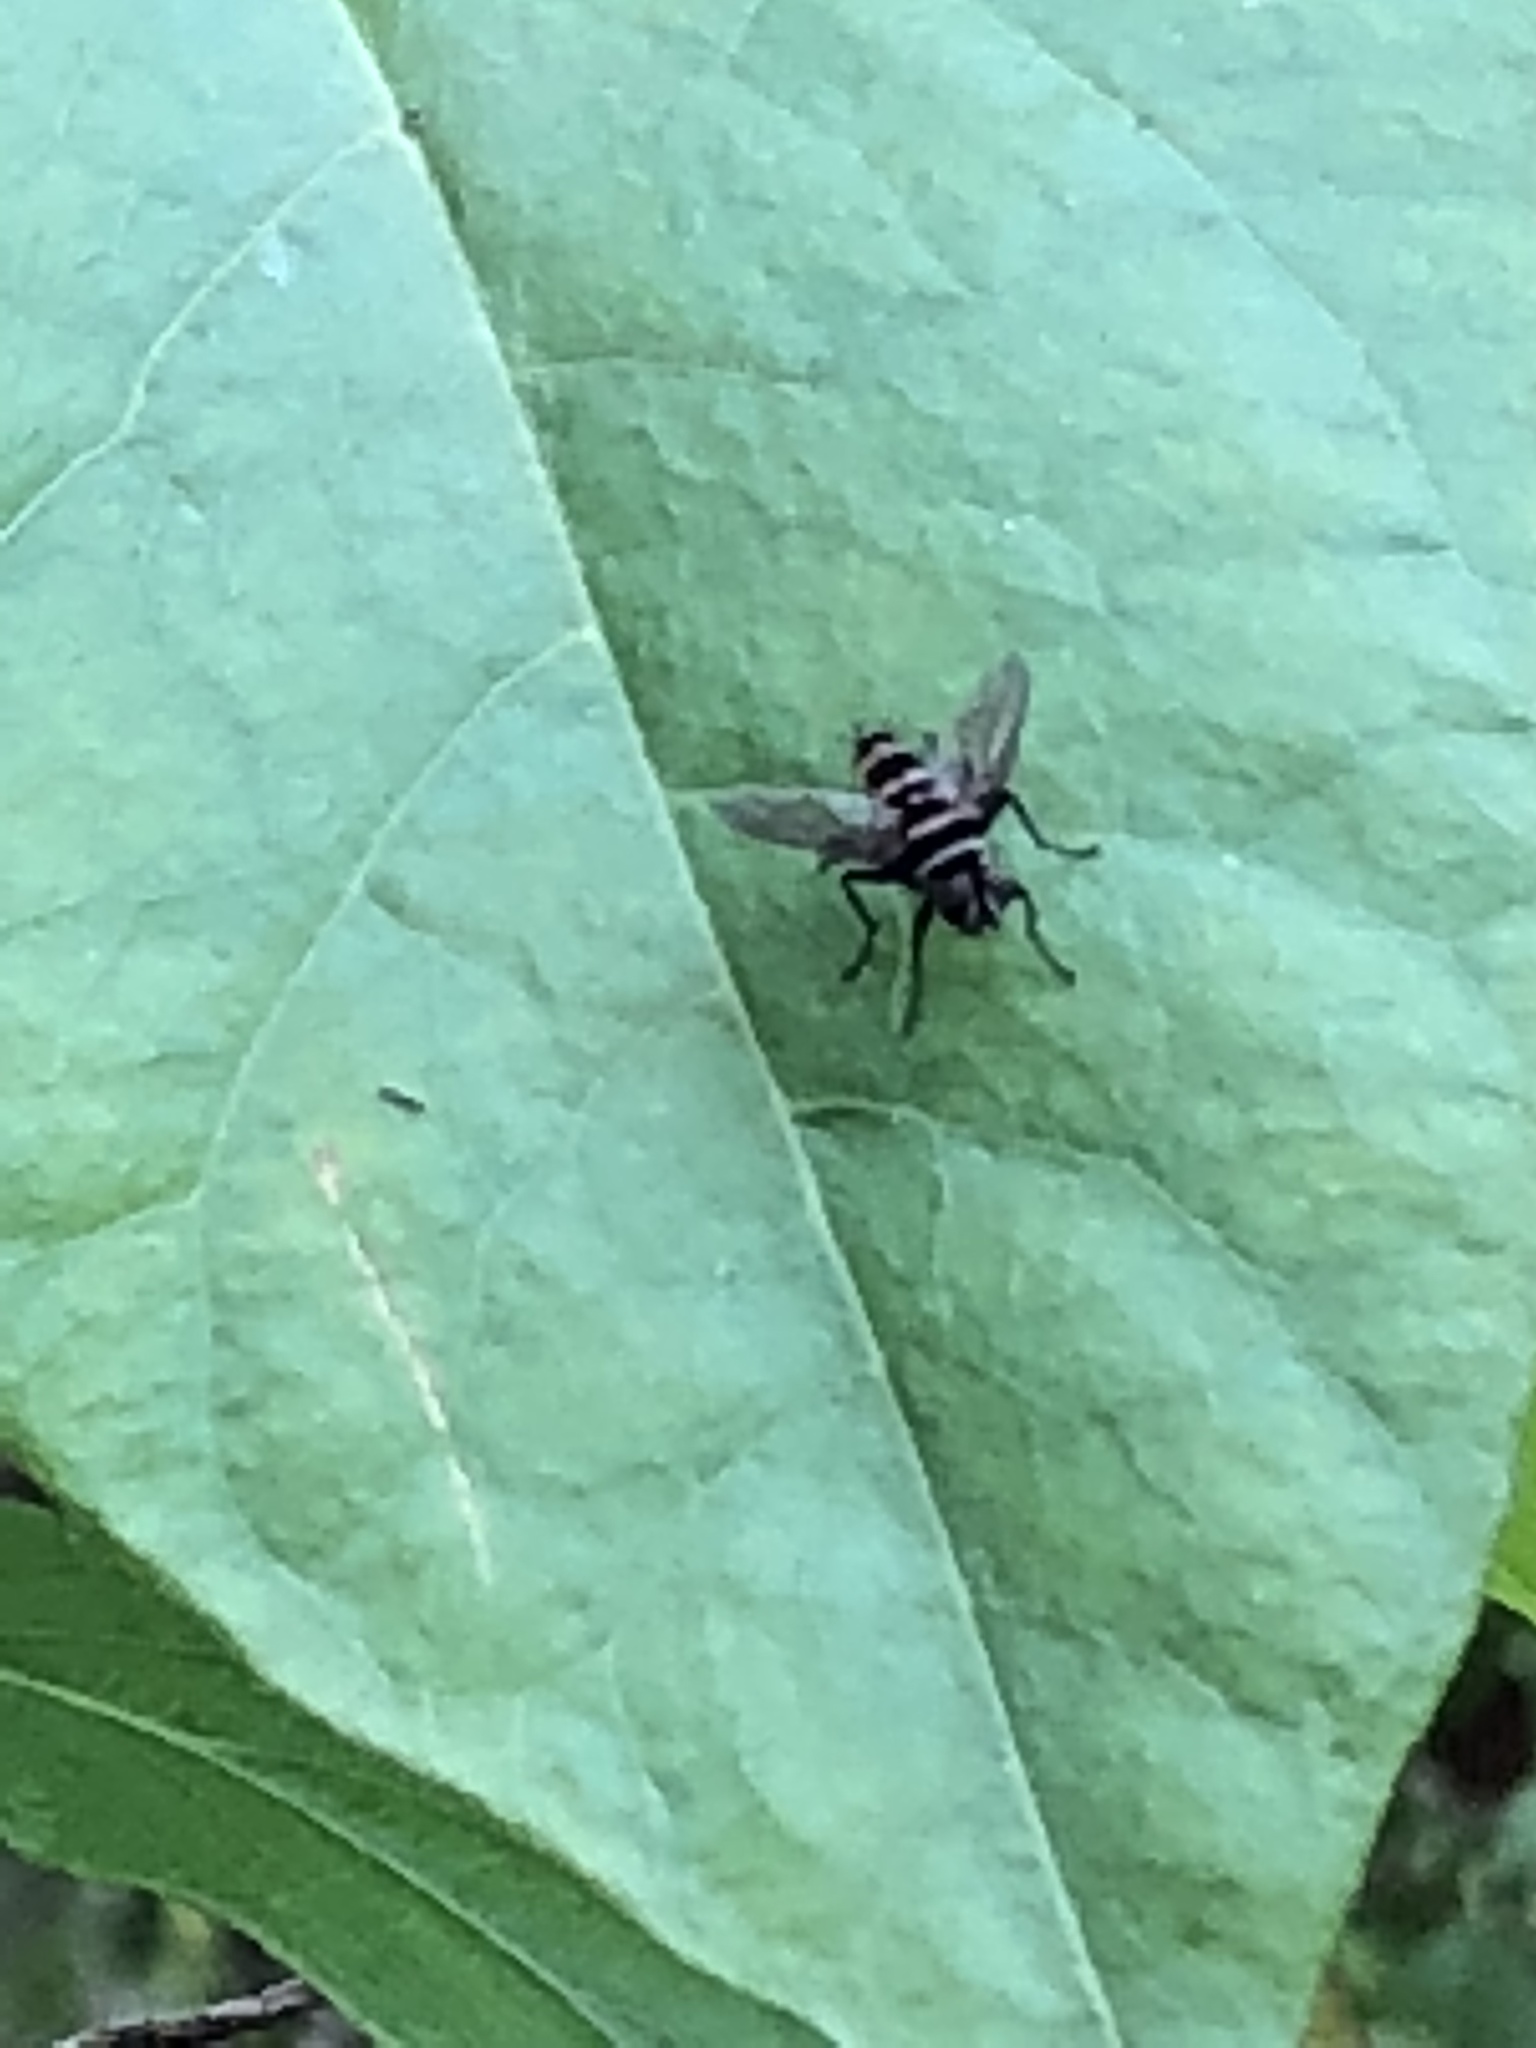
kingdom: Animalia
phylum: Arthropoda
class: Insecta
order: Diptera
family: Tachinidae
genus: Trigonospila
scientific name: Trigonospila brevifacies
